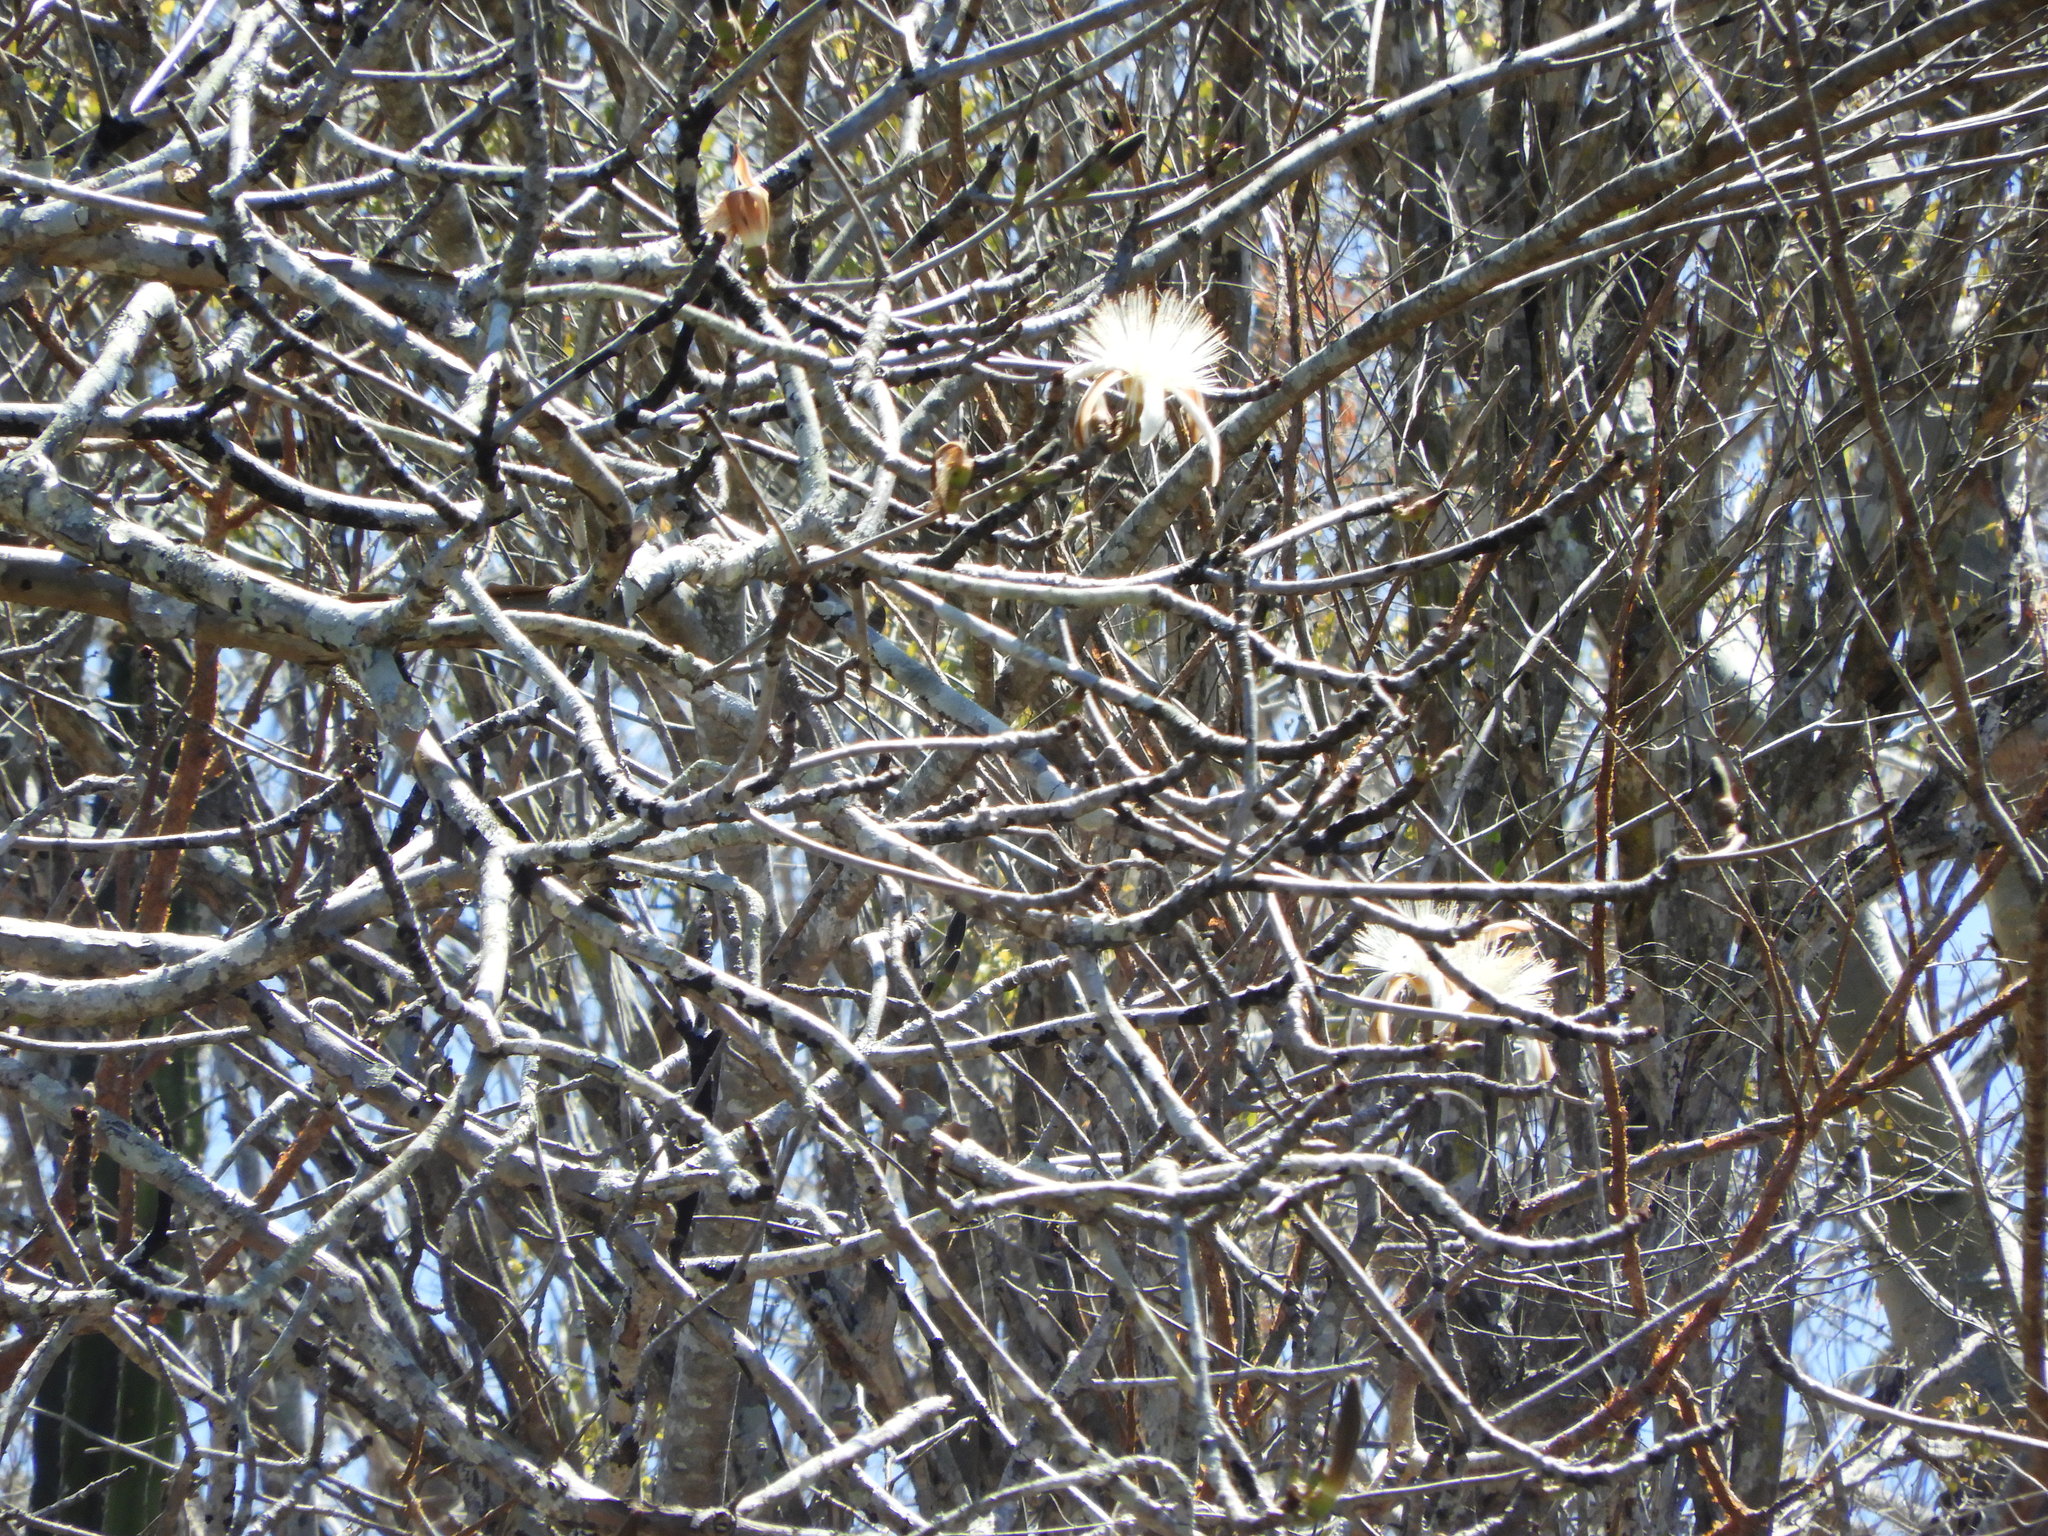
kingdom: Plantae
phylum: Tracheophyta
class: Magnoliopsida
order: Malvales
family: Malvaceae
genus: Pseudobombax
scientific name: Pseudobombax palmeri
